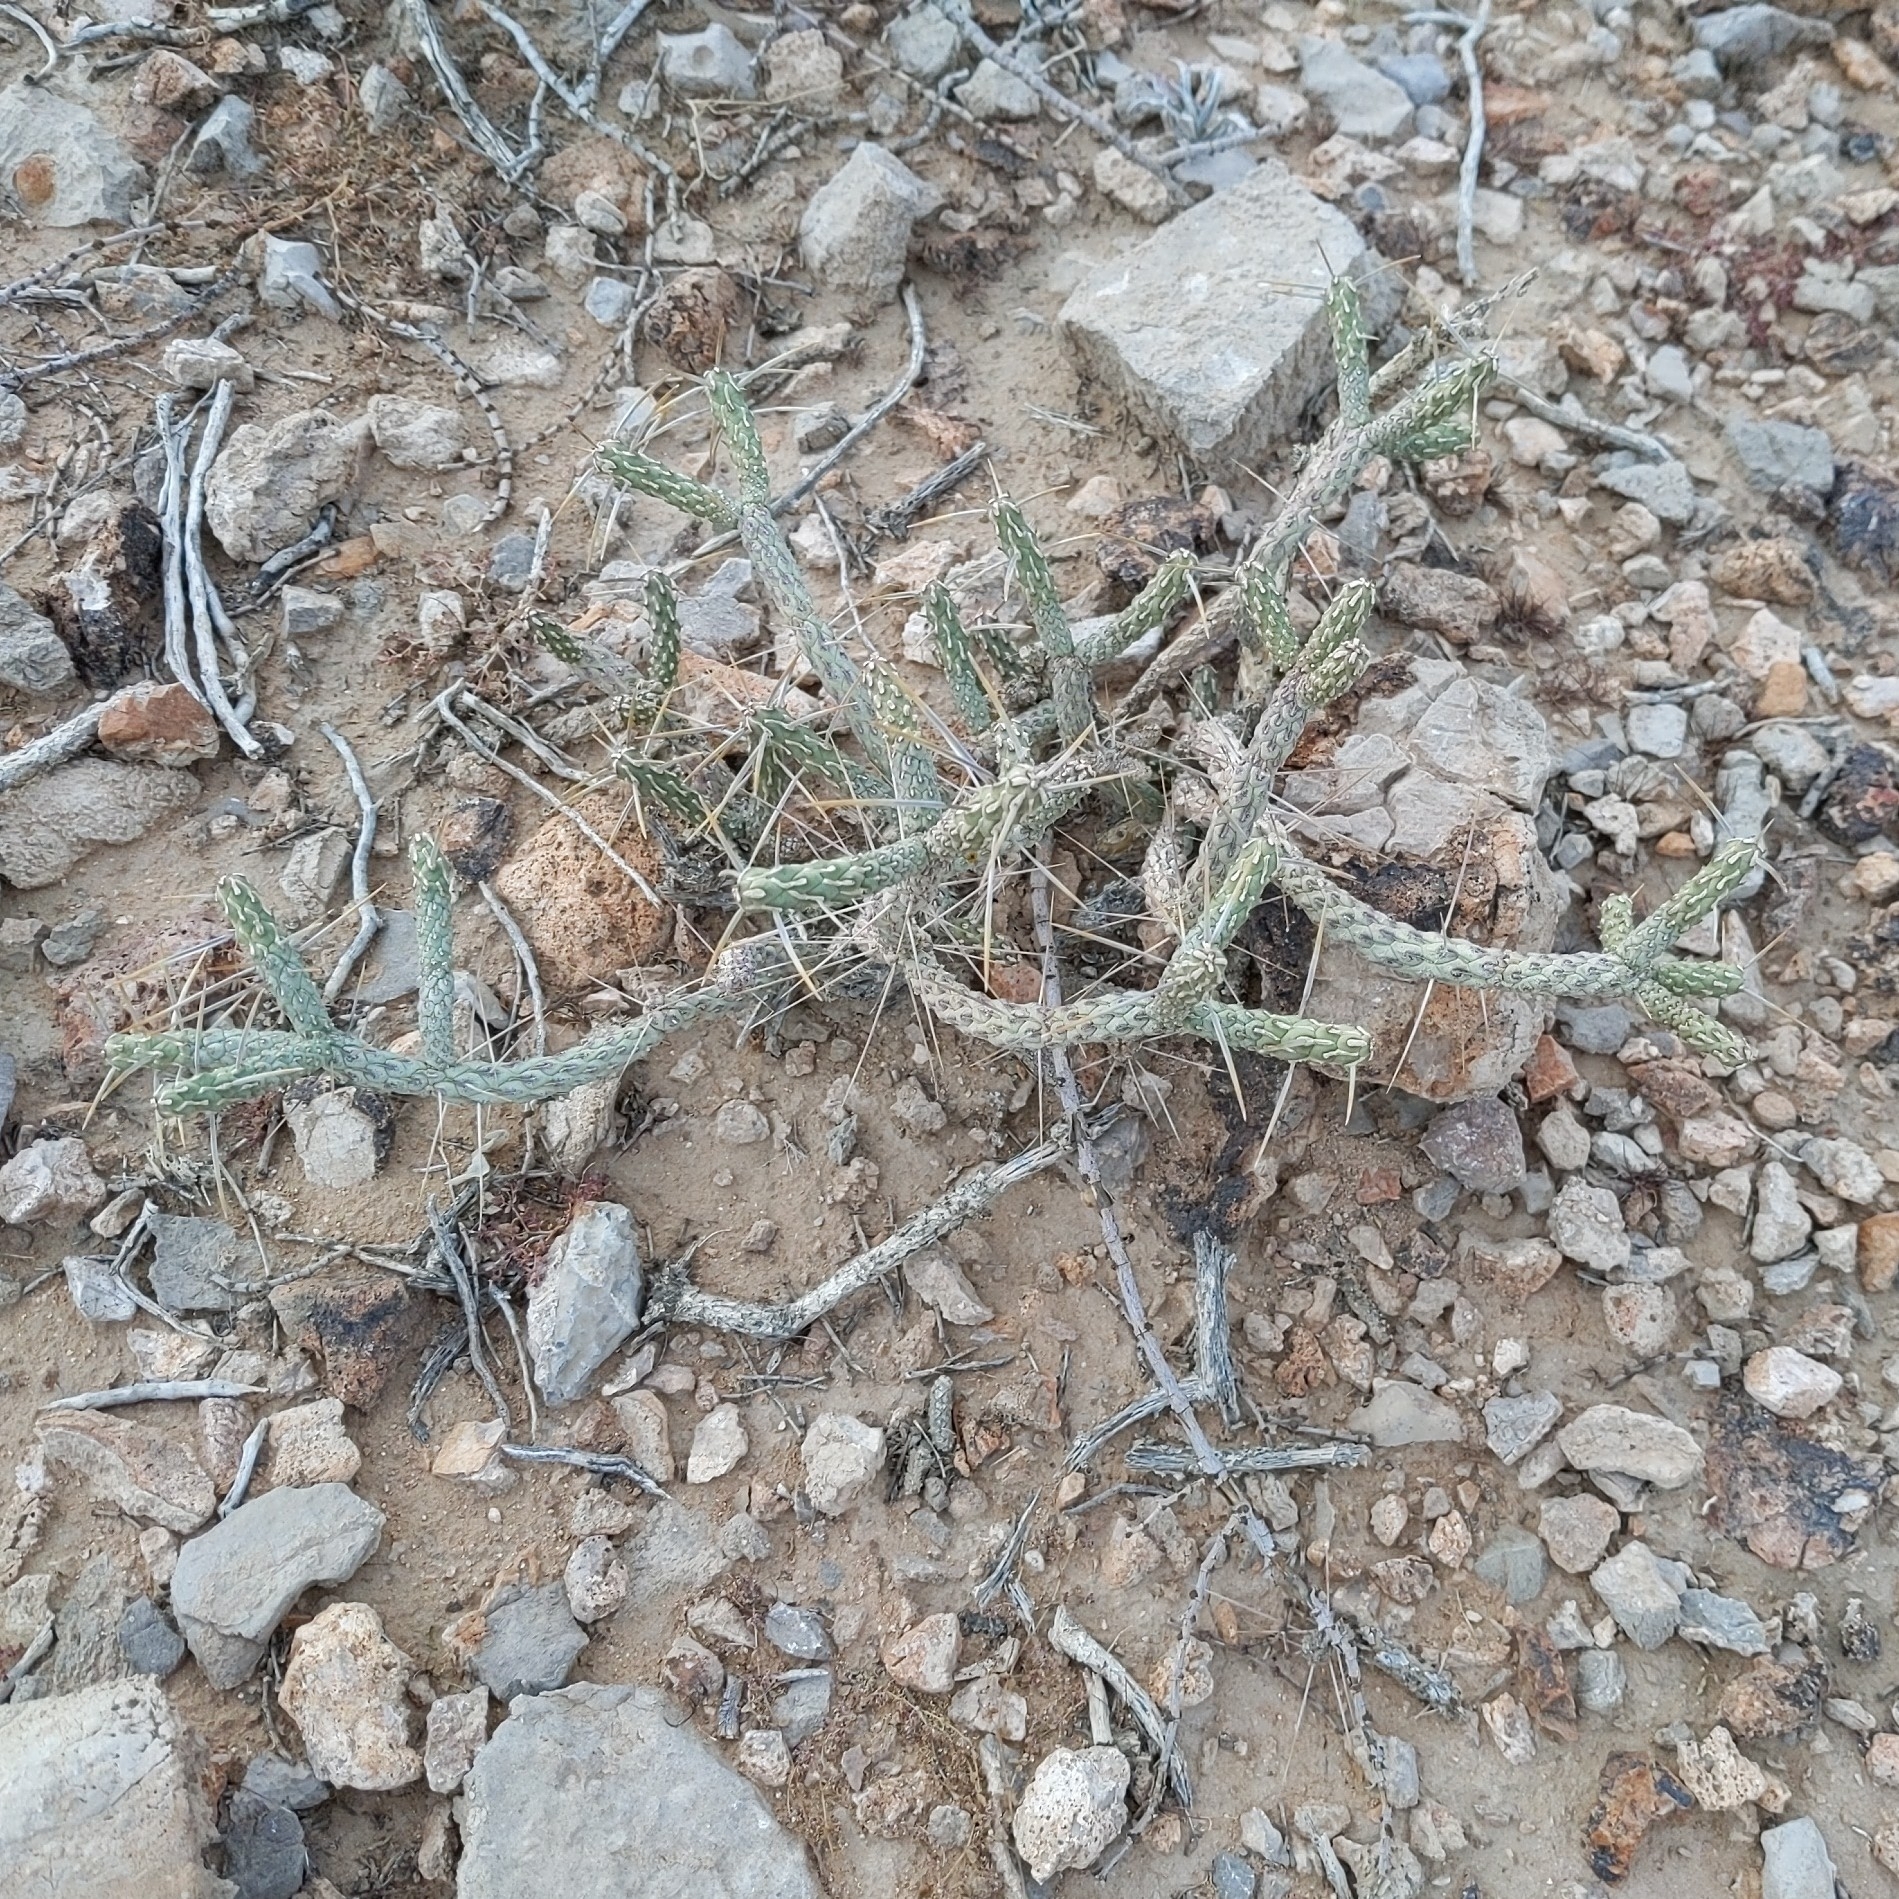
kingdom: Plantae
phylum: Tracheophyta
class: Magnoliopsida
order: Caryophyllales
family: Cactaceae
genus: Cylindropuntia
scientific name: Cylindropuntia ramosissima
